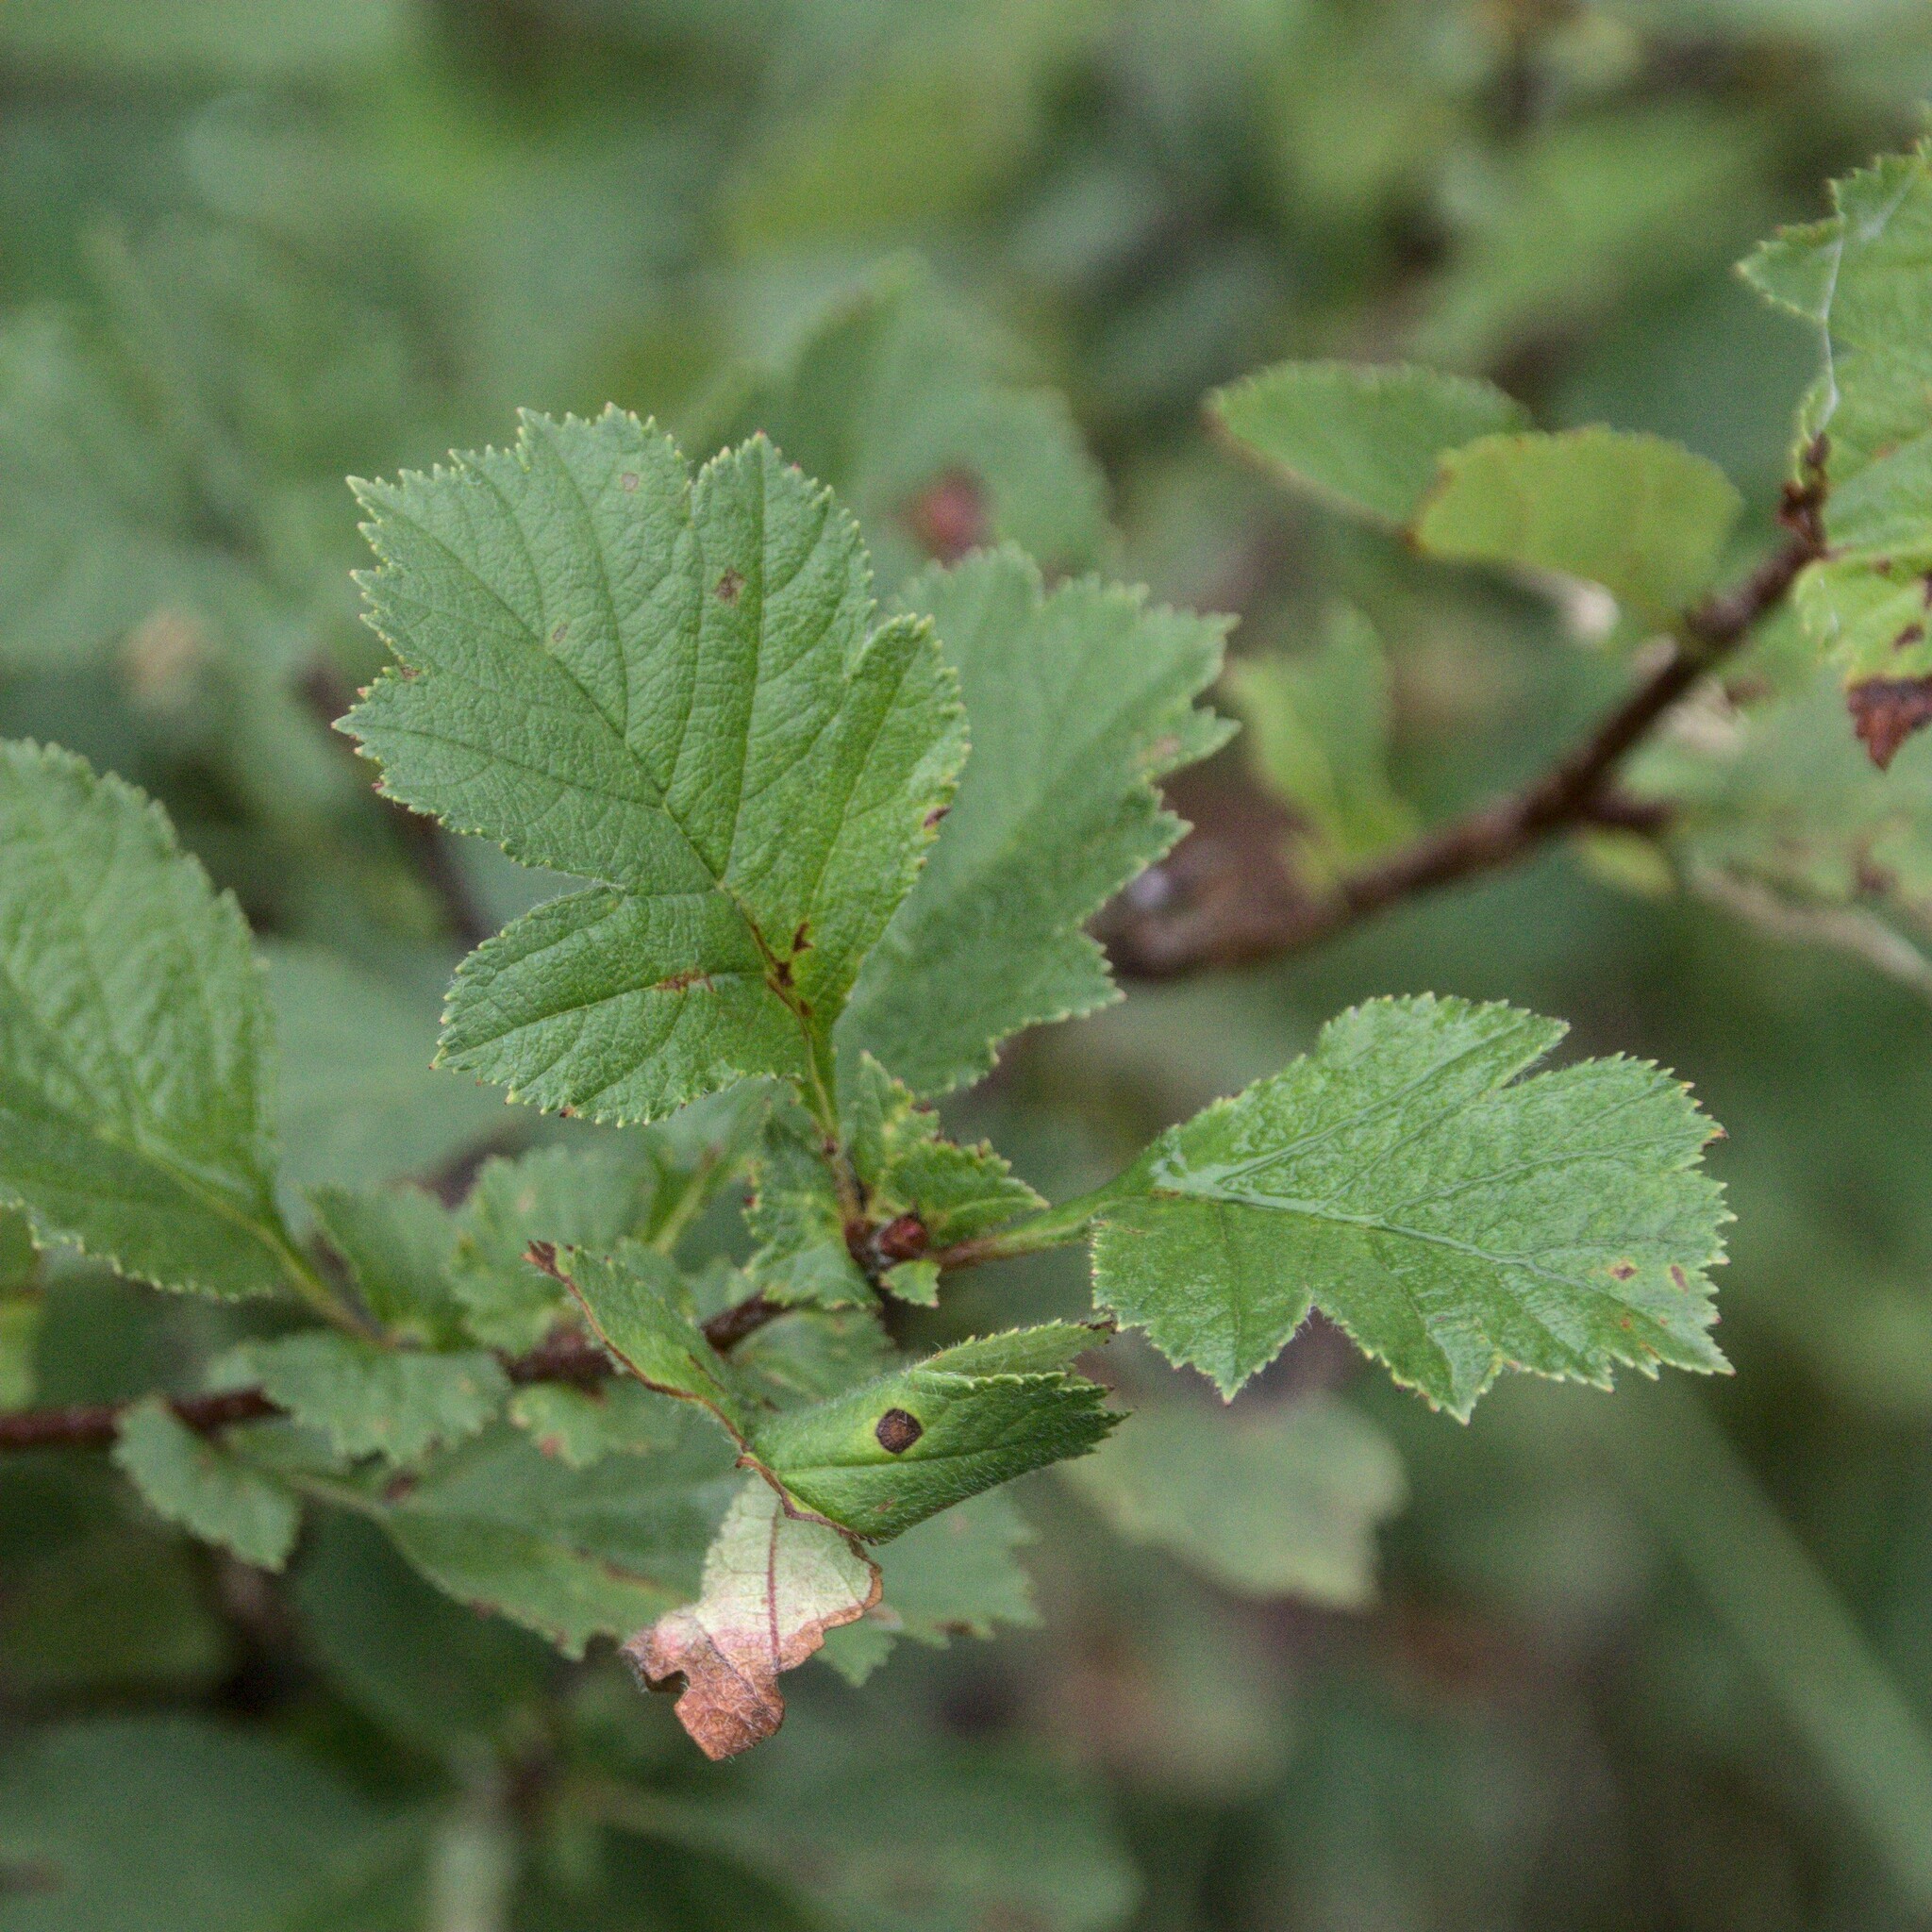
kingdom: Plantae
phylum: Tracheophyta
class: Magnoliopsida
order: Rosales
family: Rosaceae
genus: Crataegus
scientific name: Crataegus sanguinea
